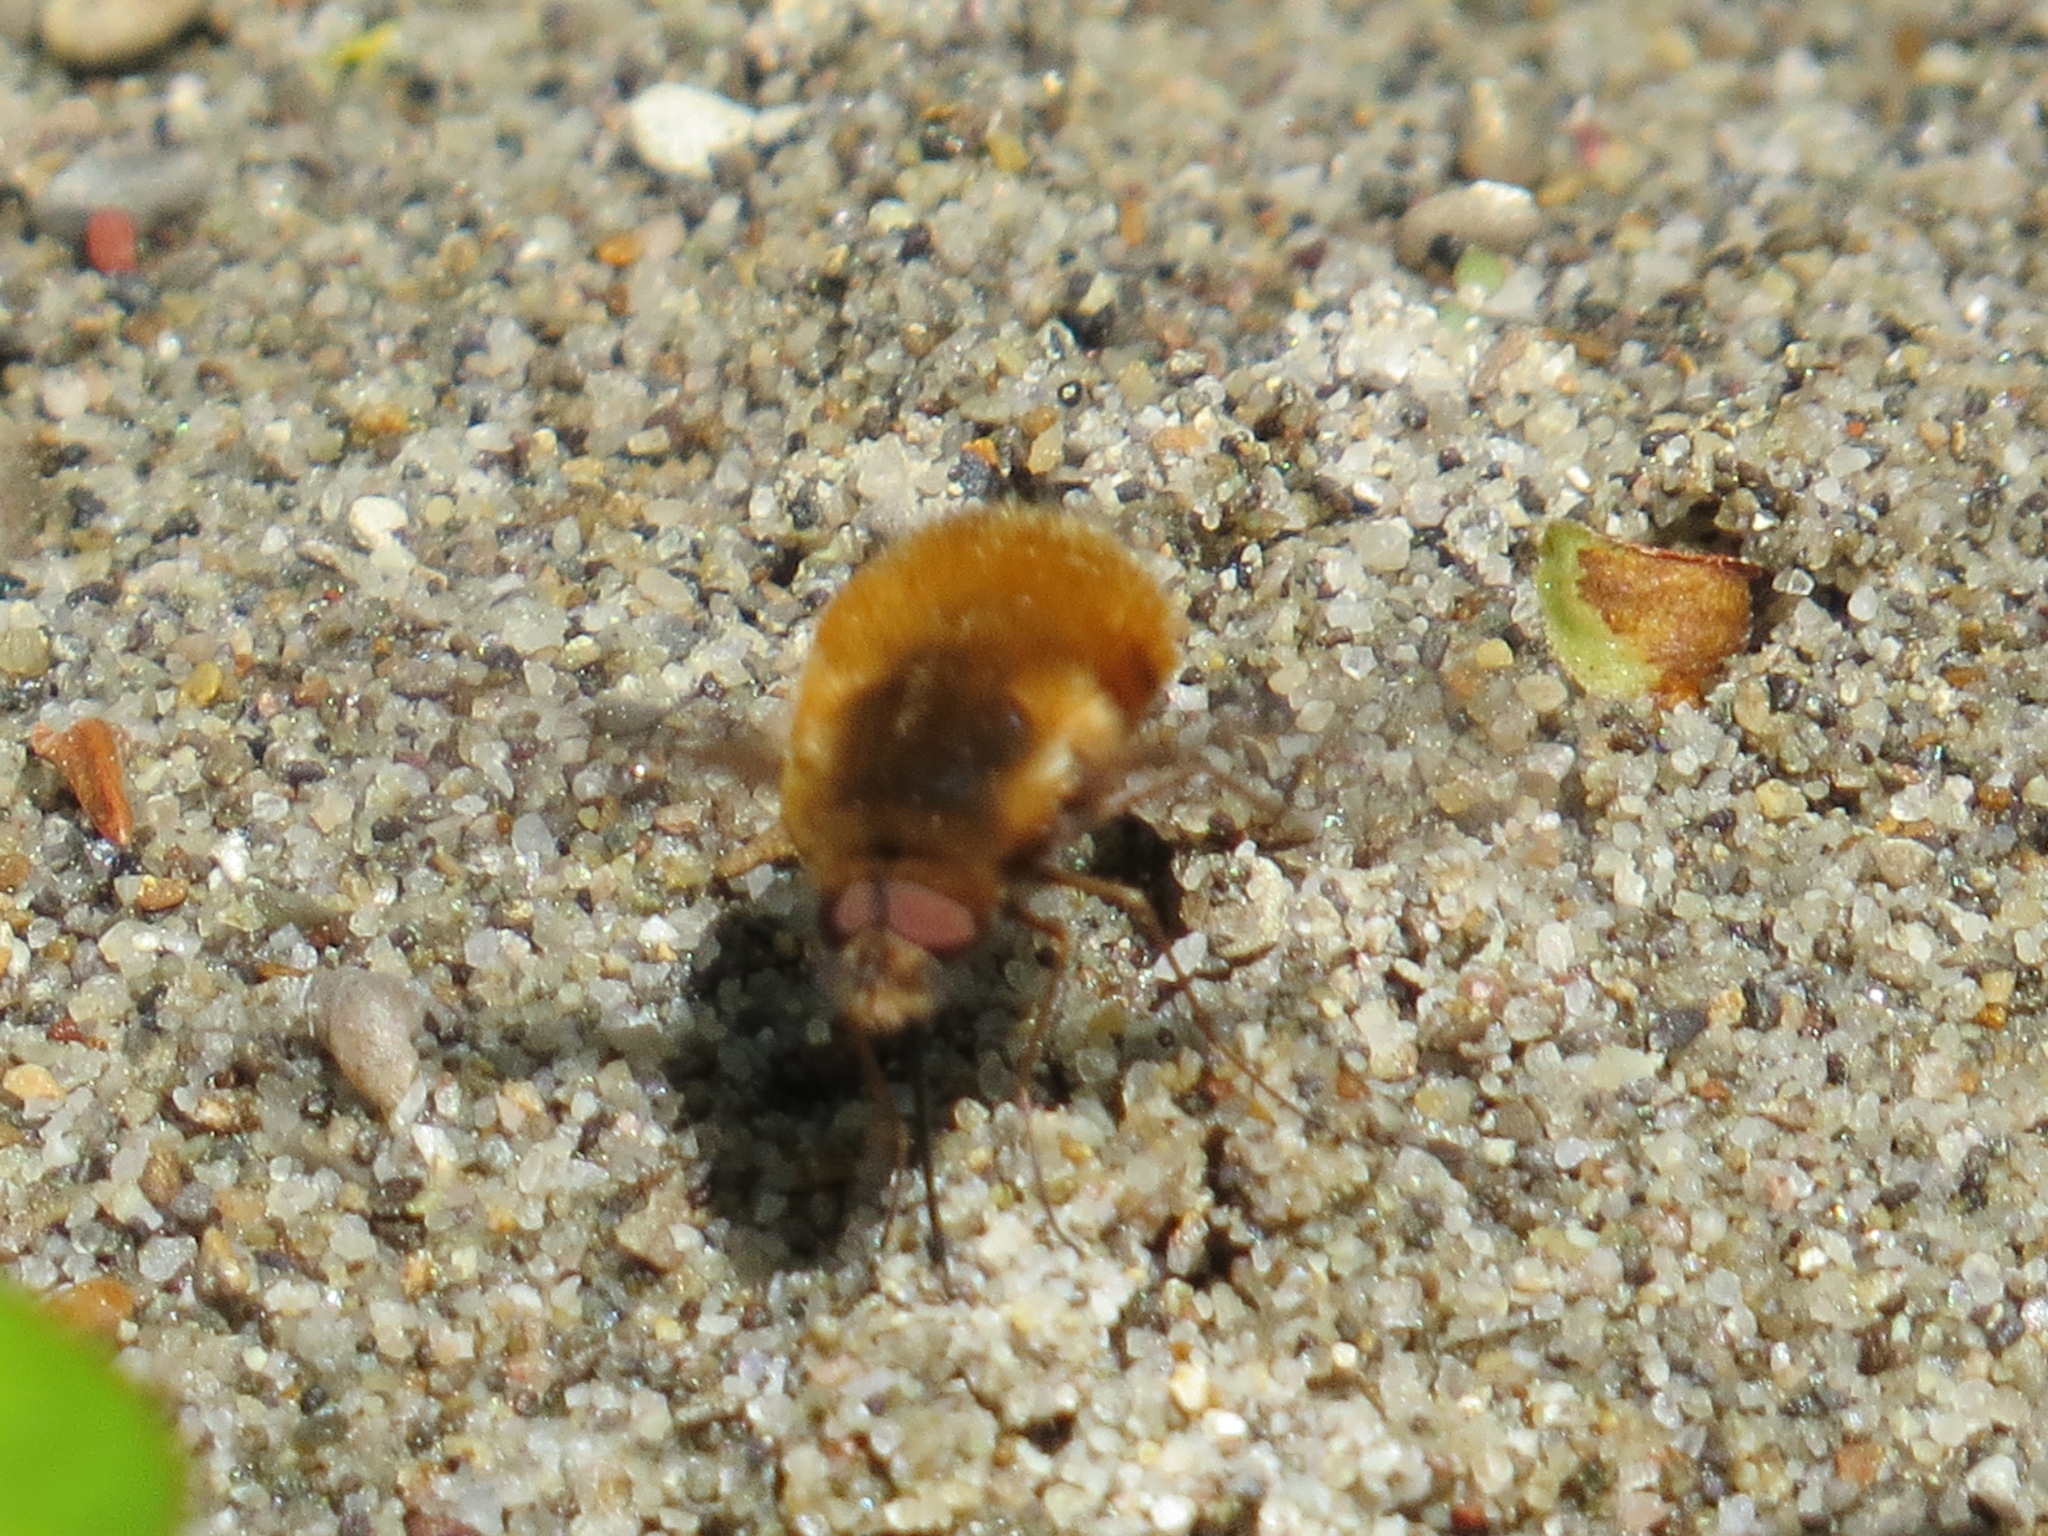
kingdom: Animalia
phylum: Arthropoda
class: Insecta
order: Diptera
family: Bombyliidae
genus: Bombylius
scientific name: Bombylius major
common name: Bee fly
